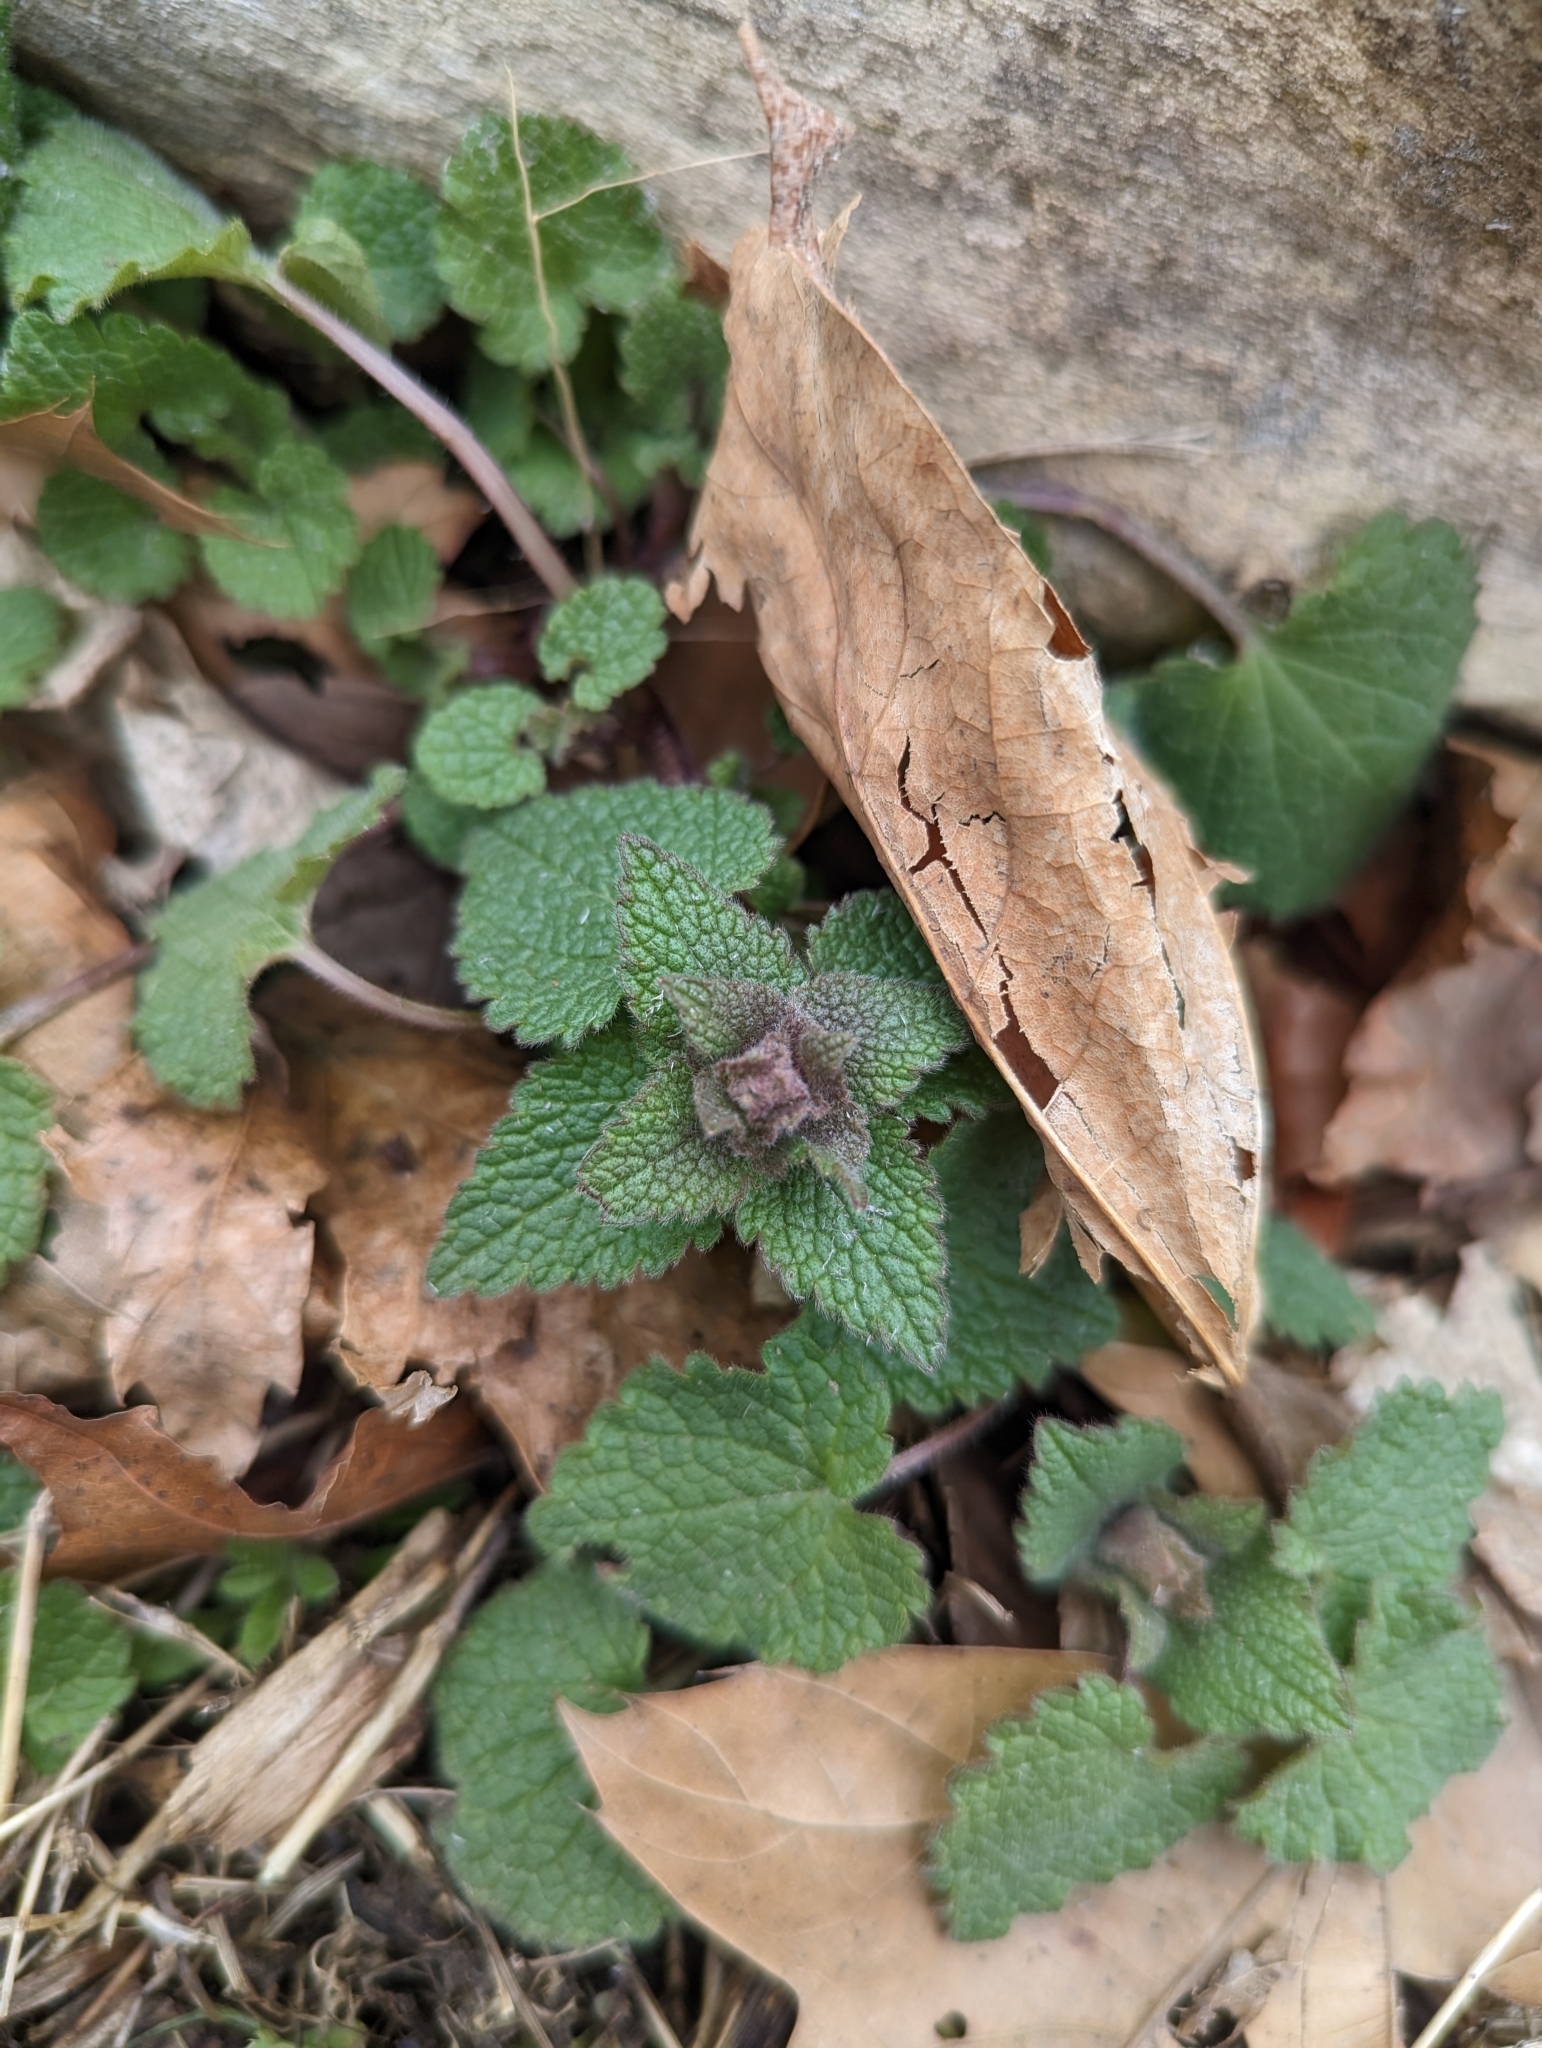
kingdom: Plantae
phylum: Tracheophyta
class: Magnoliopsida
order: Lamiales
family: Lamiaceae
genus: Lamium
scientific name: Lamium purpureum
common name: Red dead-nettle
